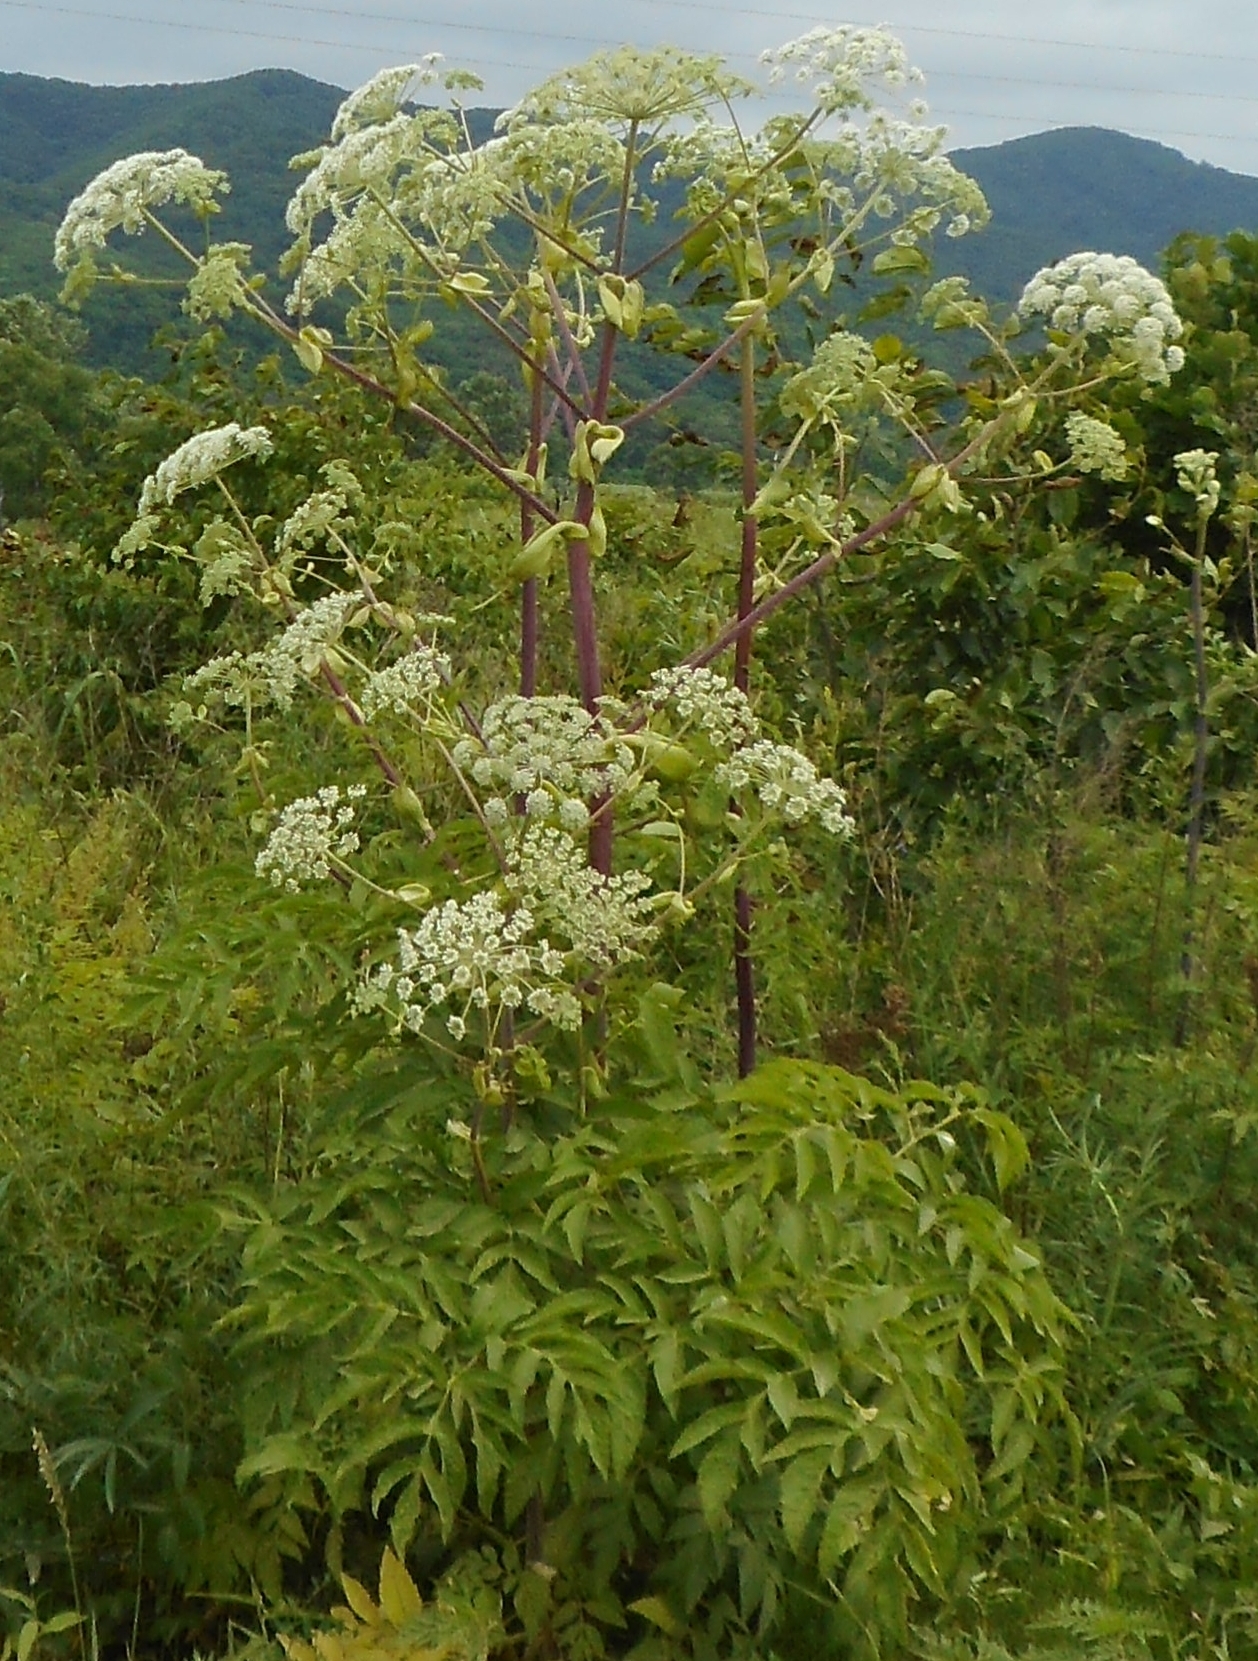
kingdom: Plantae
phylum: Tracheophyta
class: Magnoliopsida
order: Apiales
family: Apiaceae
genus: Angelica
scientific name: Angelica dahurica
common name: Dahurian angelica
